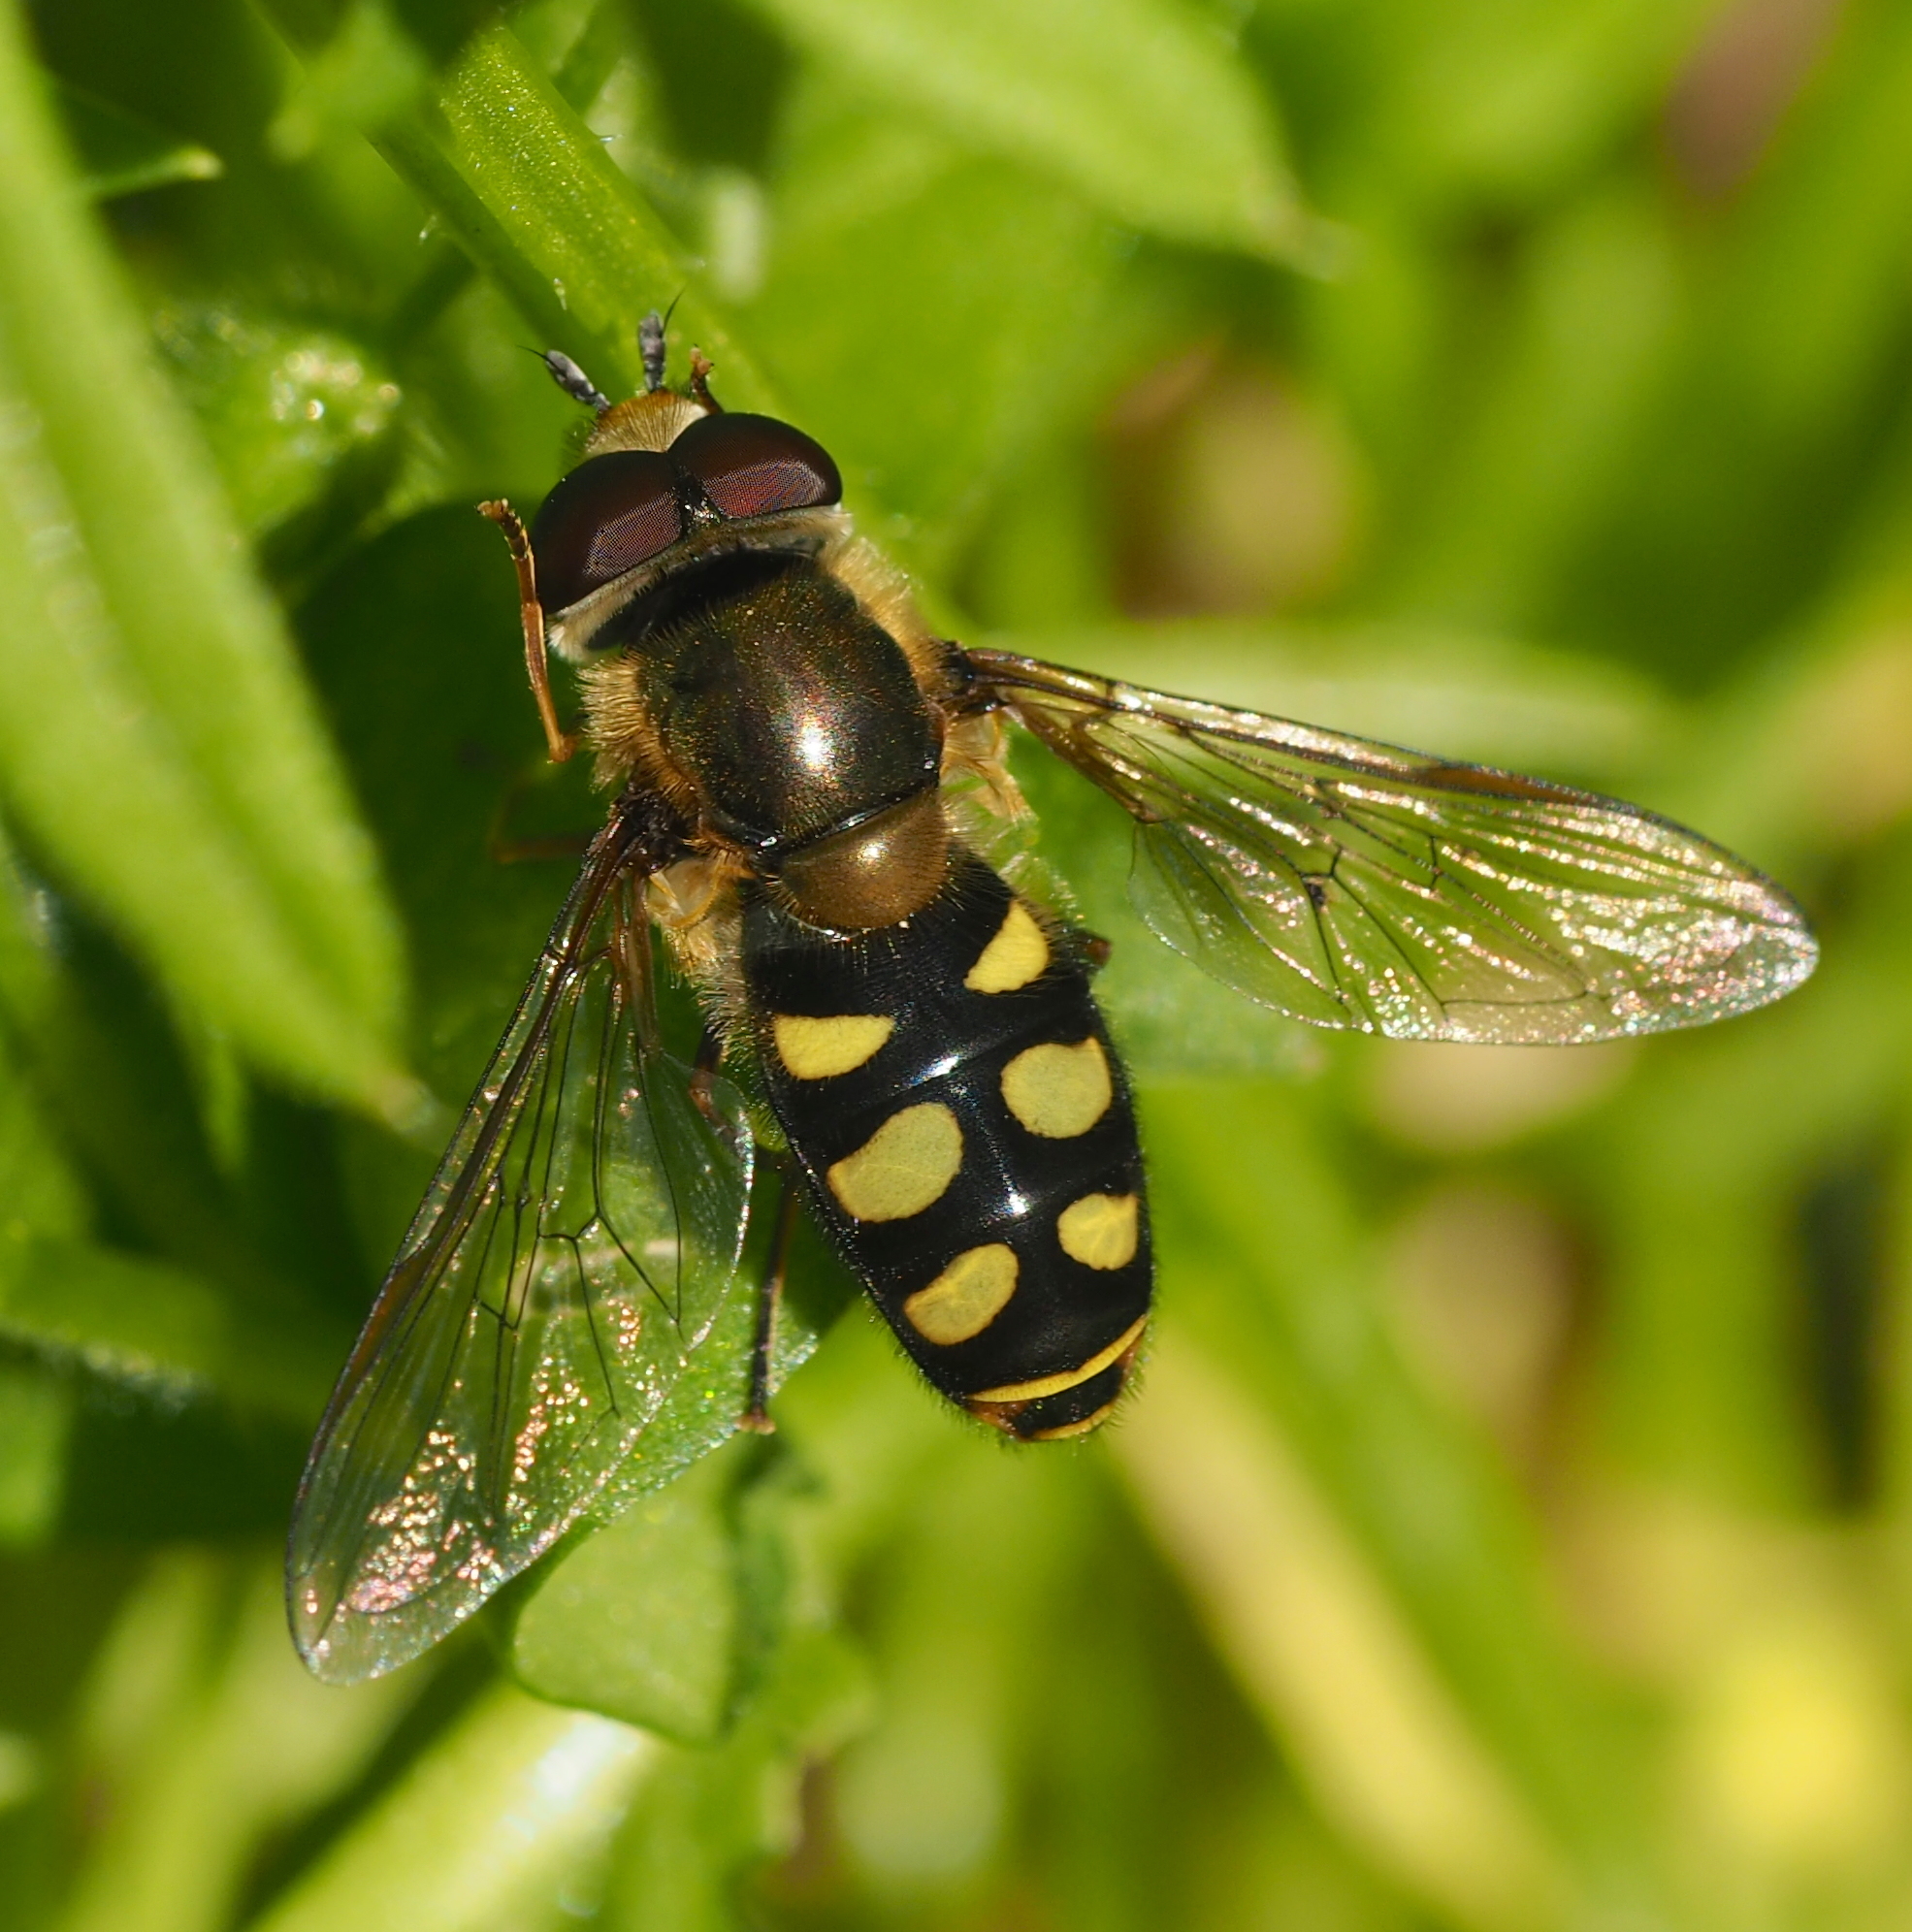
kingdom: Animalia
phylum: Arthropoda
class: Insecta
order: Diptera
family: Syrphidae
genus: Eupeodes
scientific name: Eupeodes luniger
